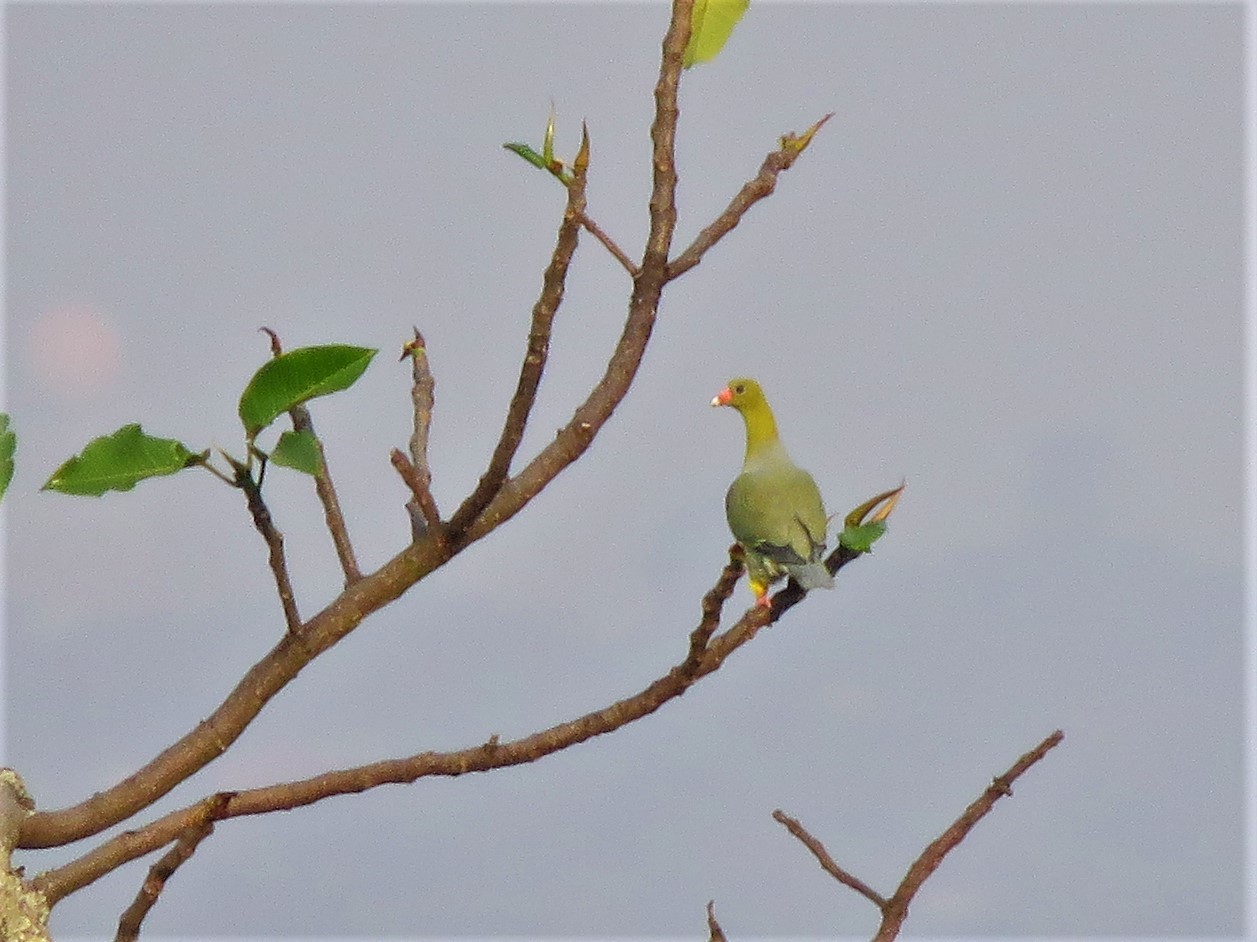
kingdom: Animalia
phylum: Chordata
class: Aves
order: Columbiformes
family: Columbidae
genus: Treron
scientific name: Treron calvus
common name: African green pigeon
